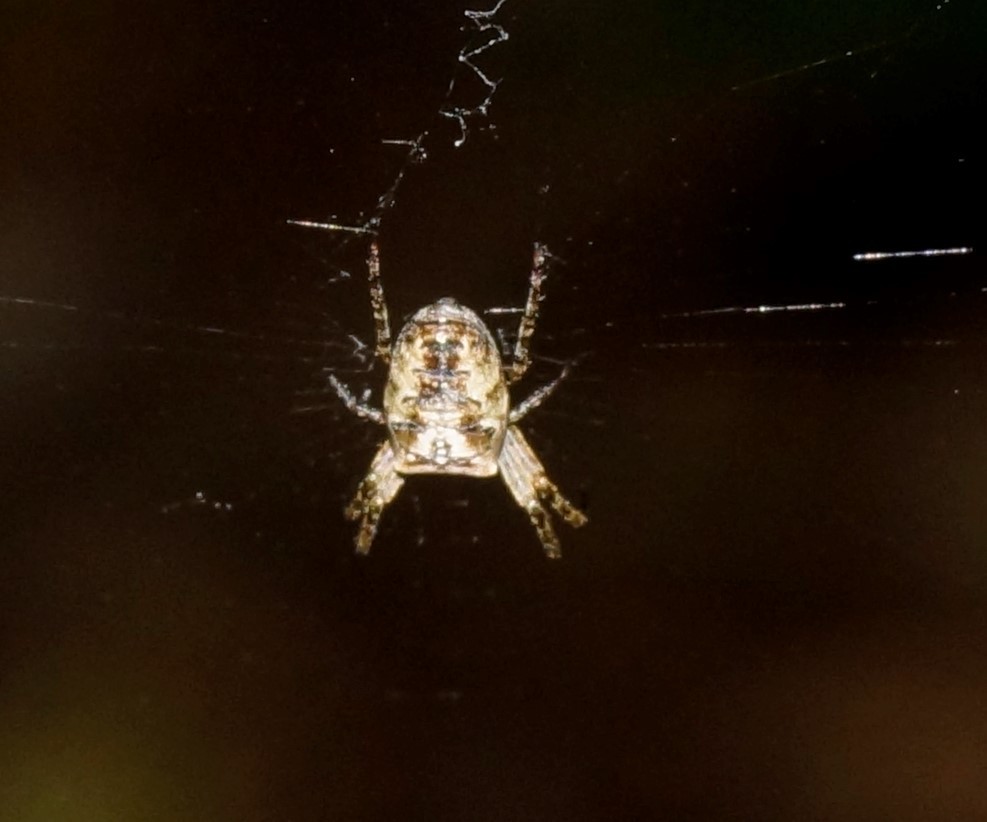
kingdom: Animalia
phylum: Arthropoda
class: Arachnida
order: Araneae
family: Araneidae
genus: Plebs
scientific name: Plebs eburnus
